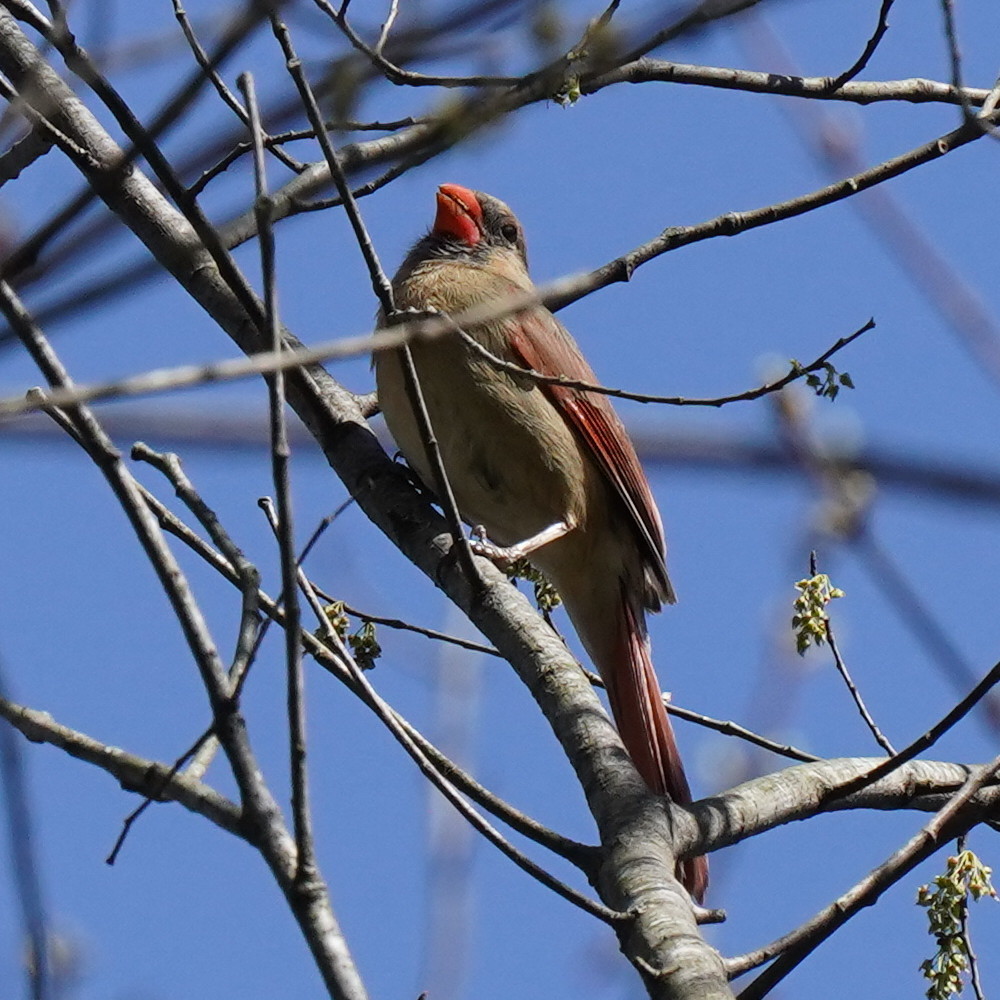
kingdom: Animalia
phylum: Chordata
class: Aves
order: Passeriformes
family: Cardinalidae
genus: Cardinalis
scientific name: Cardinalis cardinalis
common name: Northern cardinal
